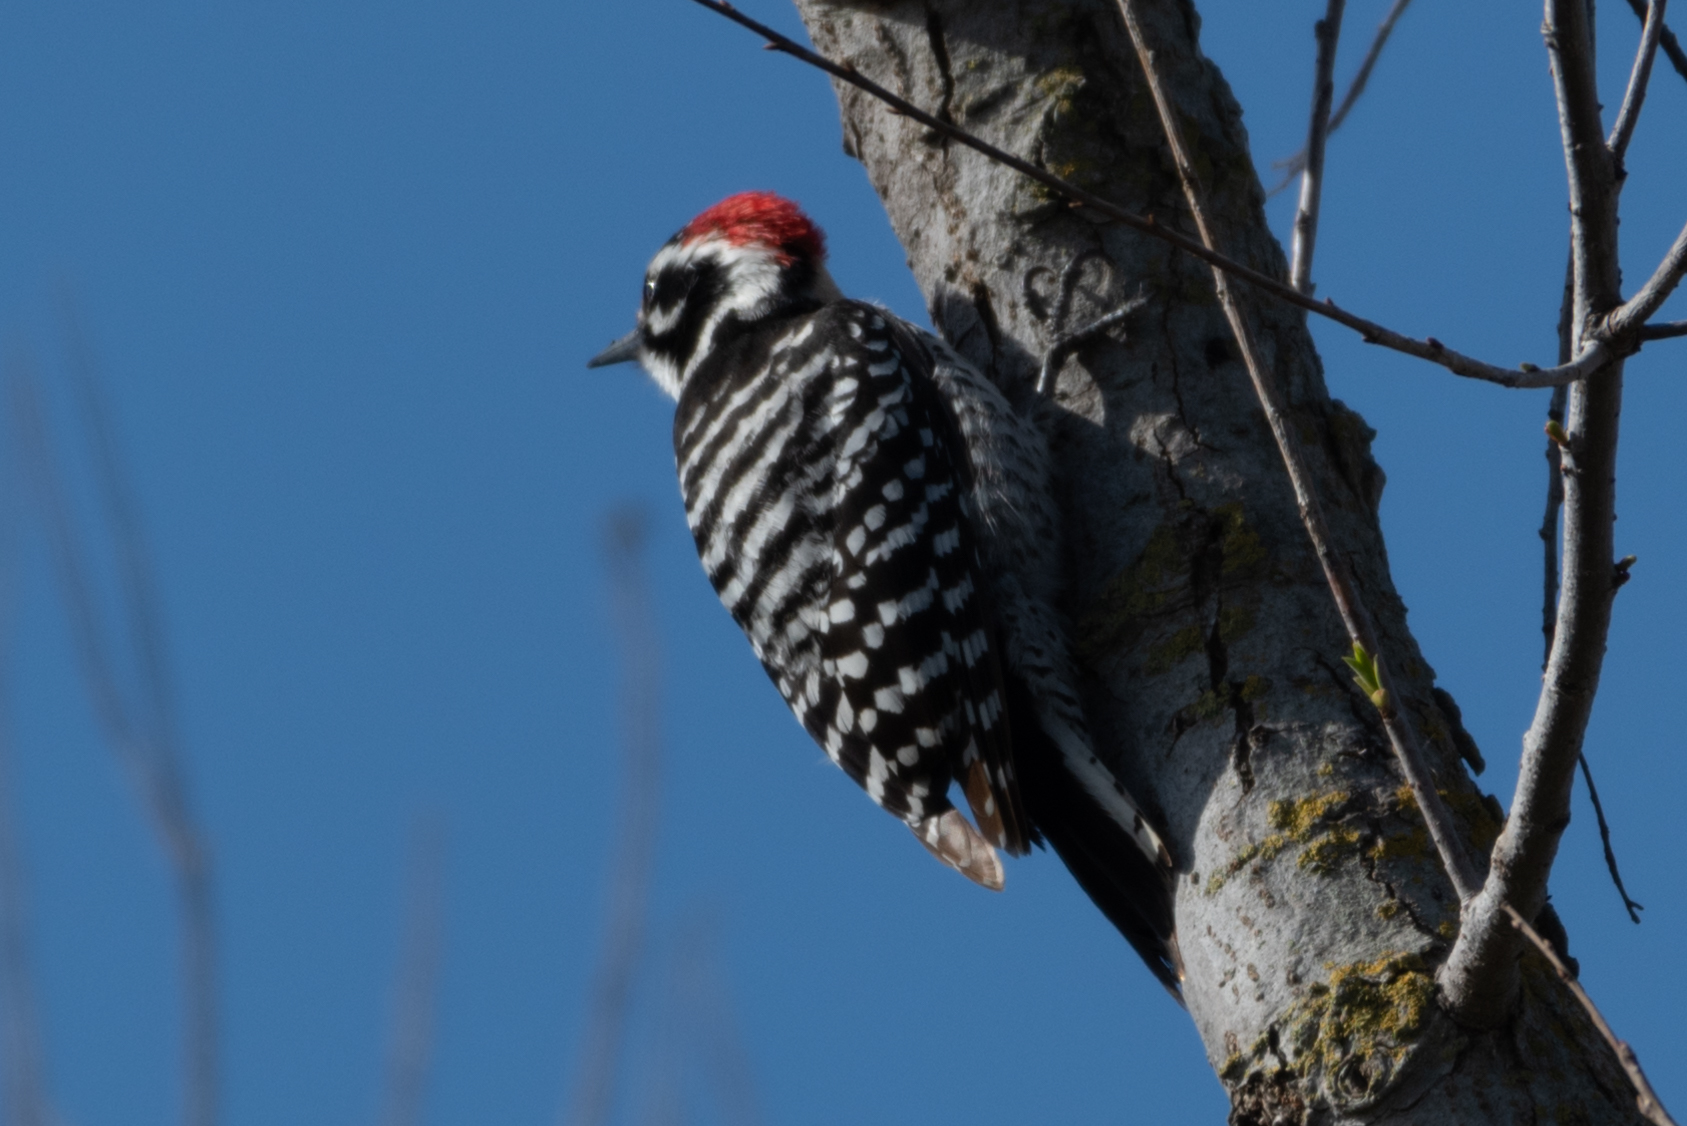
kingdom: Animalia
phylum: Chordata
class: Aves
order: Piciformes
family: Picidae
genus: Dryobates
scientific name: Dryobates nuttallii
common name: Nuttall's woodpecker
